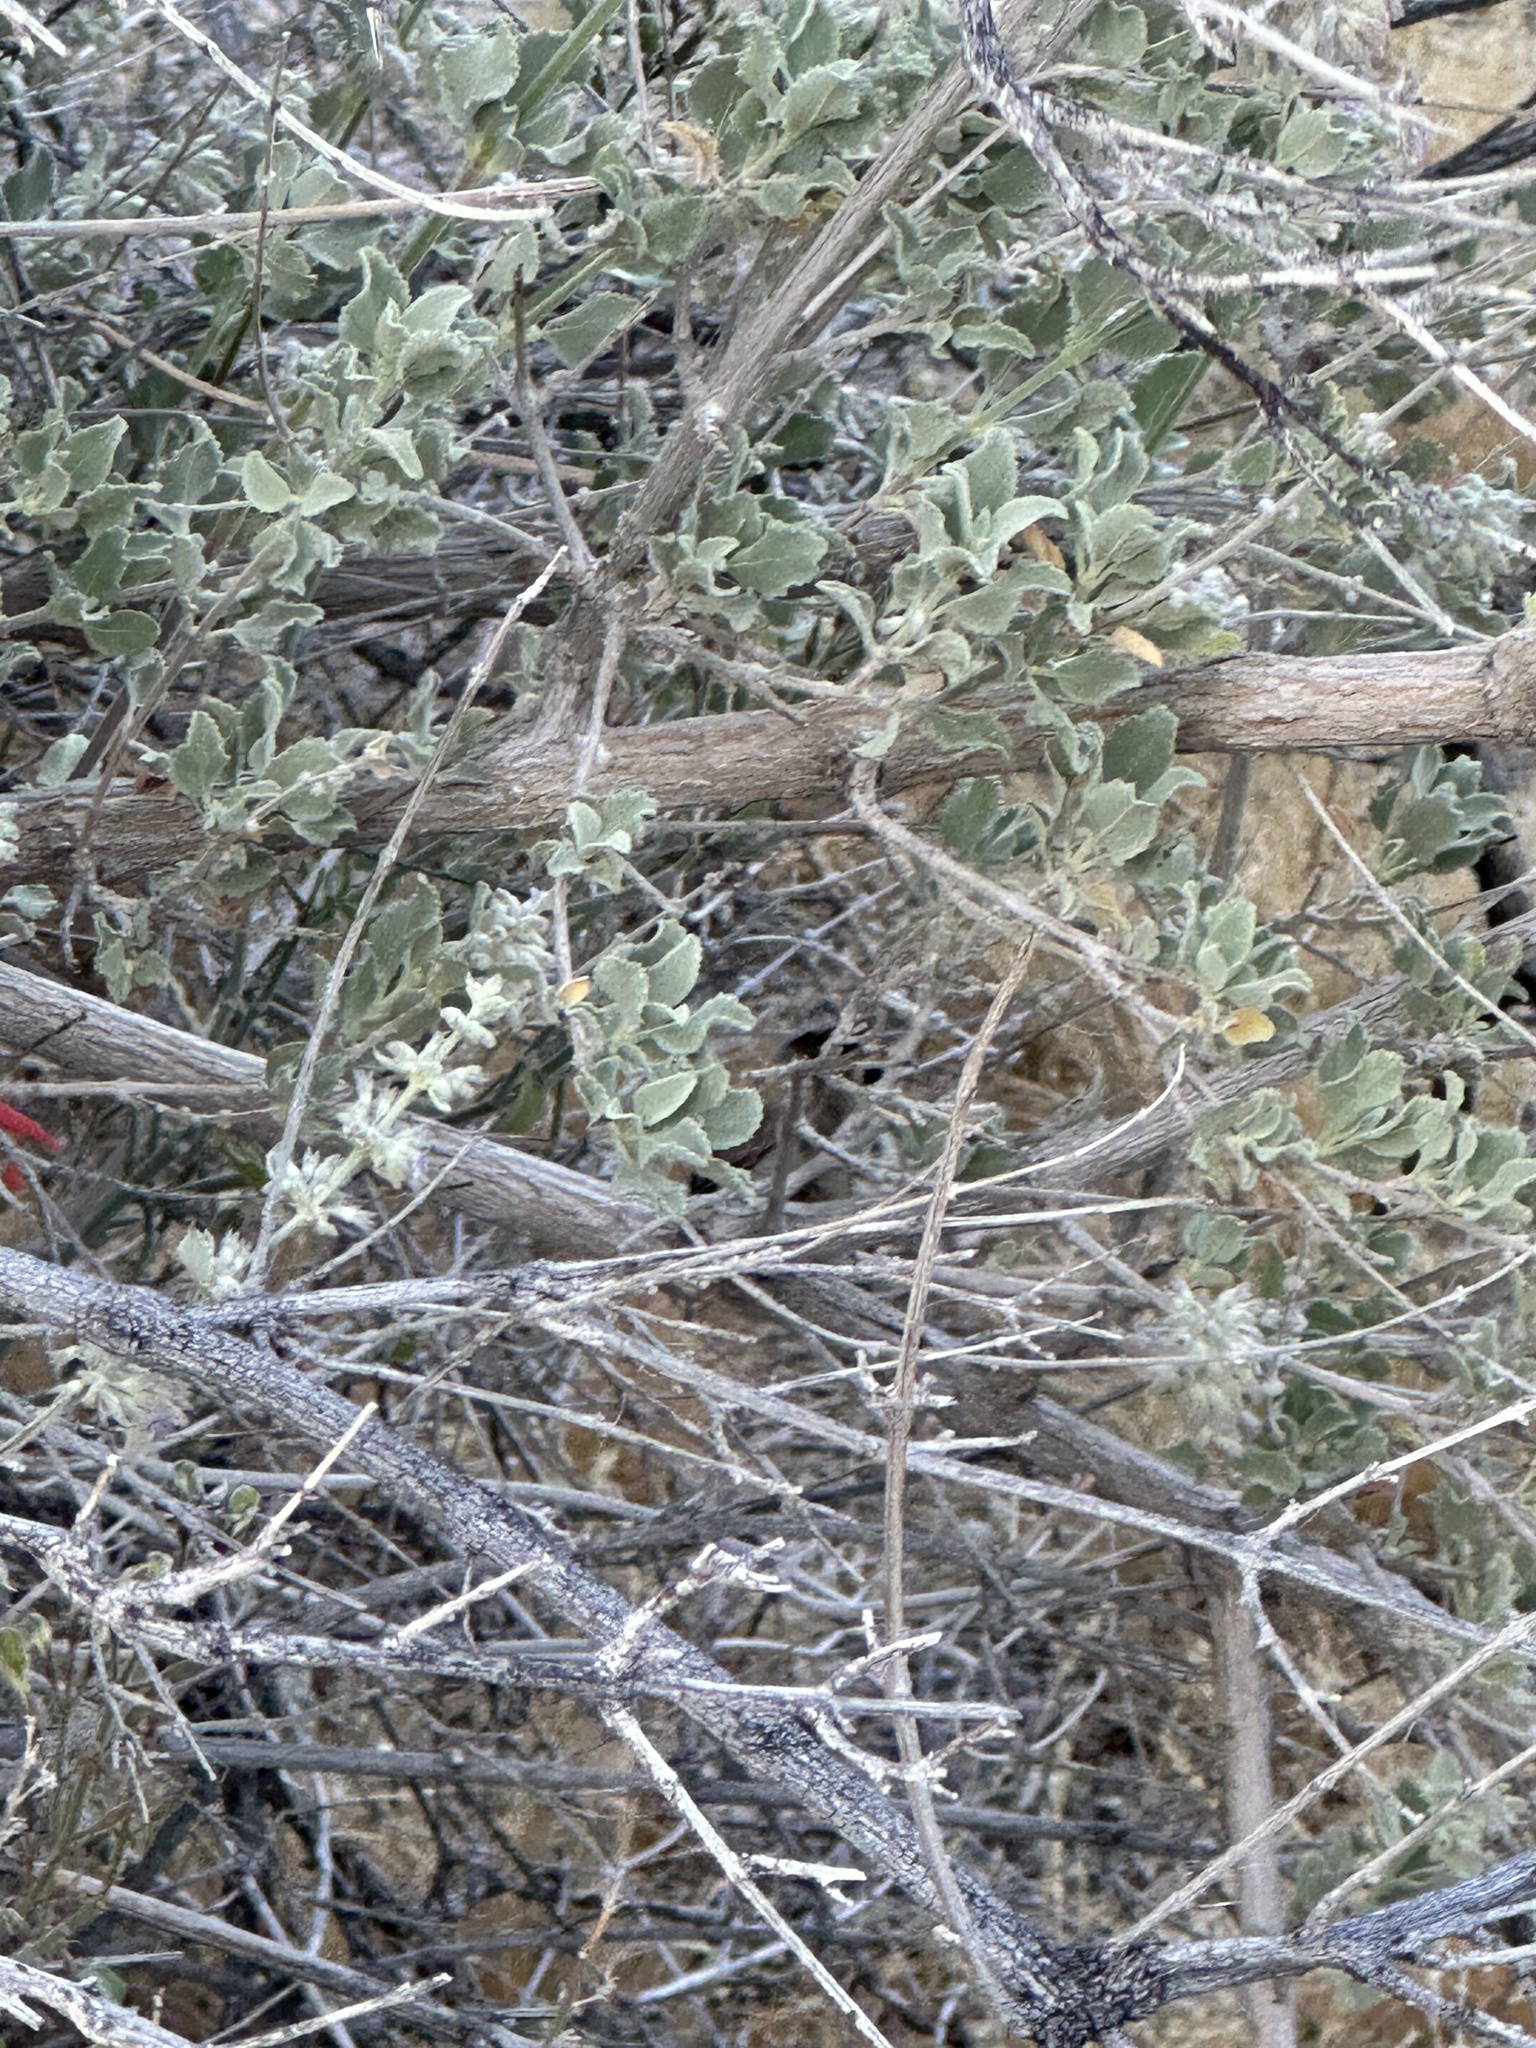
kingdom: Plantae
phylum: Tracheophyta
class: Magnoliopsida
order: Lamiales
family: Lamiaceae
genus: Condea
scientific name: Condea emoryi
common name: Chia
